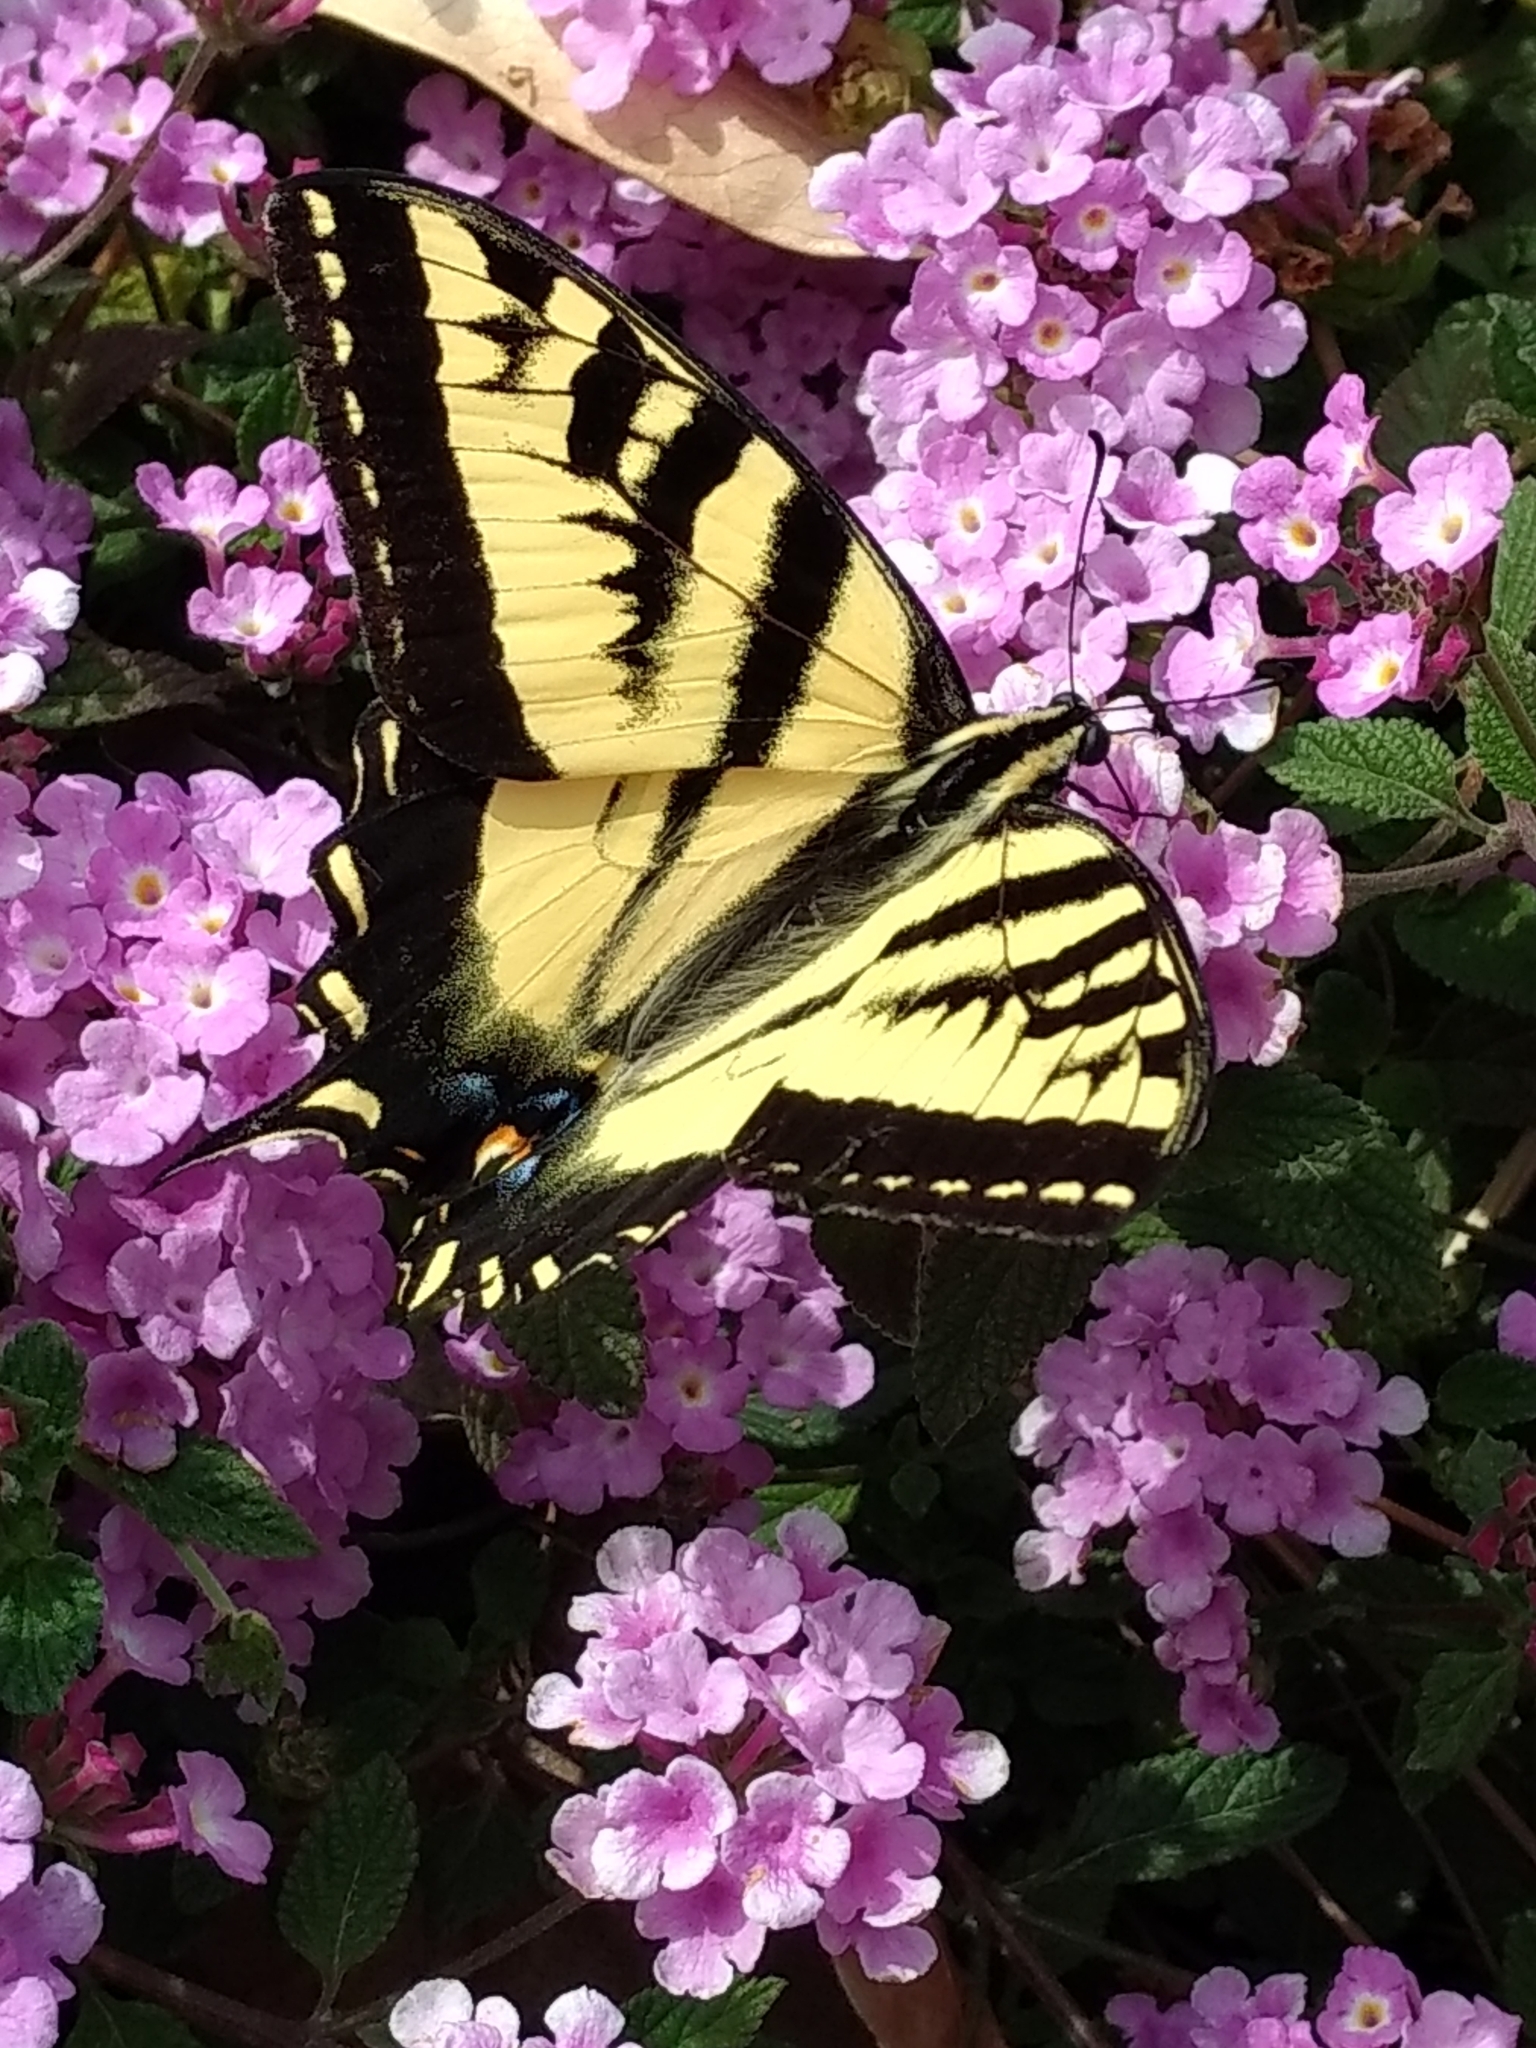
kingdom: Animalia
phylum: Arthropoda
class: Insecta
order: Lepidoptera
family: Papilionidae
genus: Papilio
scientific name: Papilio rutulus
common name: Western tiger swallowtail
